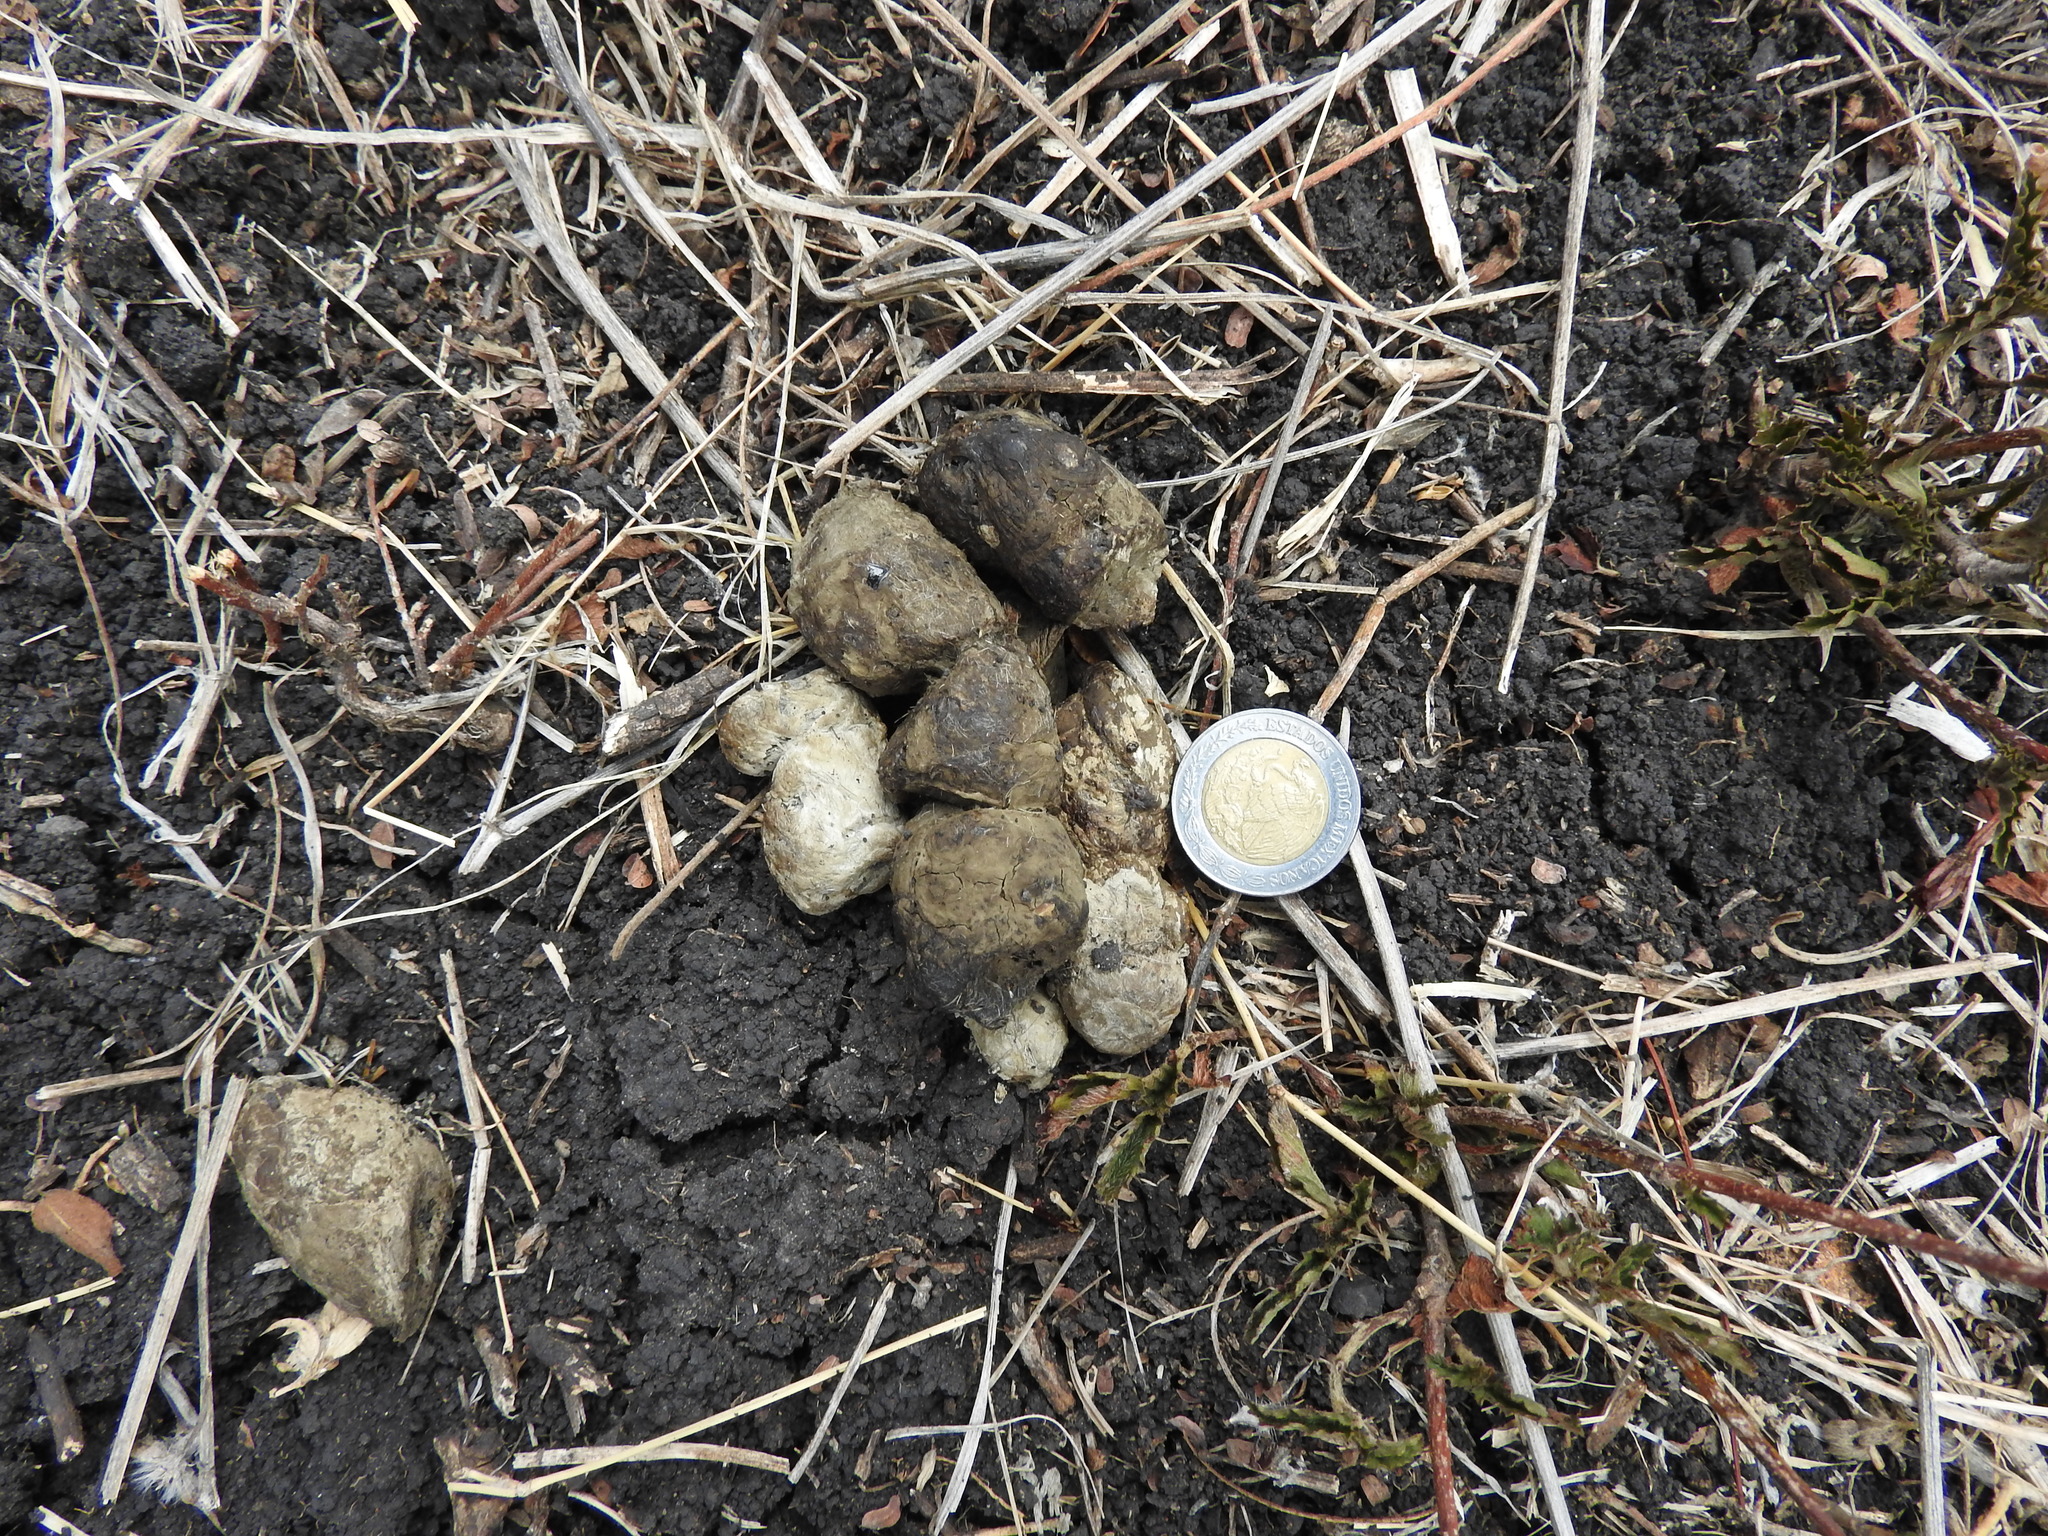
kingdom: Animalia
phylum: Chordata
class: Mammalia
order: Carnivora
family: Felidae
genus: Lynx
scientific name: Lynx rufus
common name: Bobcat
